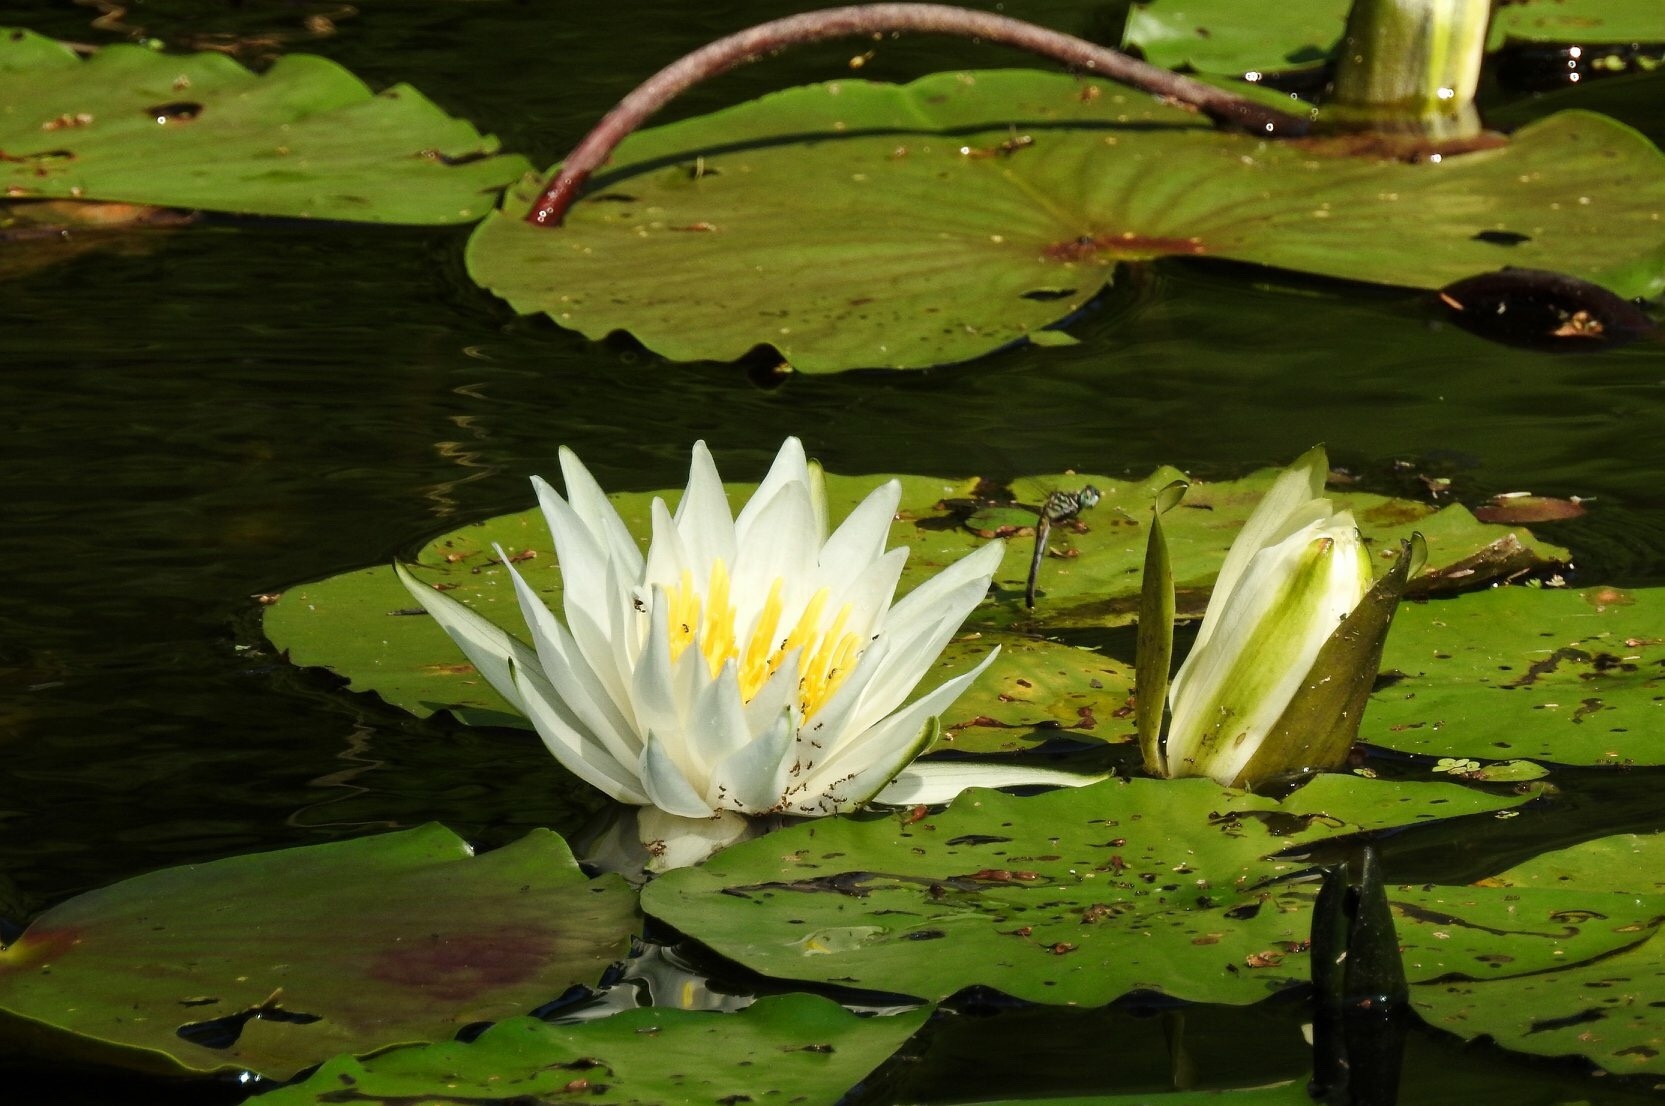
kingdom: Plantae
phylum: Tracheophyta
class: Magnoliopsida
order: Nymphaeales
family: Nymphaeaceae
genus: Nymphaea
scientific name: Nymphaea odorata
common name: Fragrant water-lily
